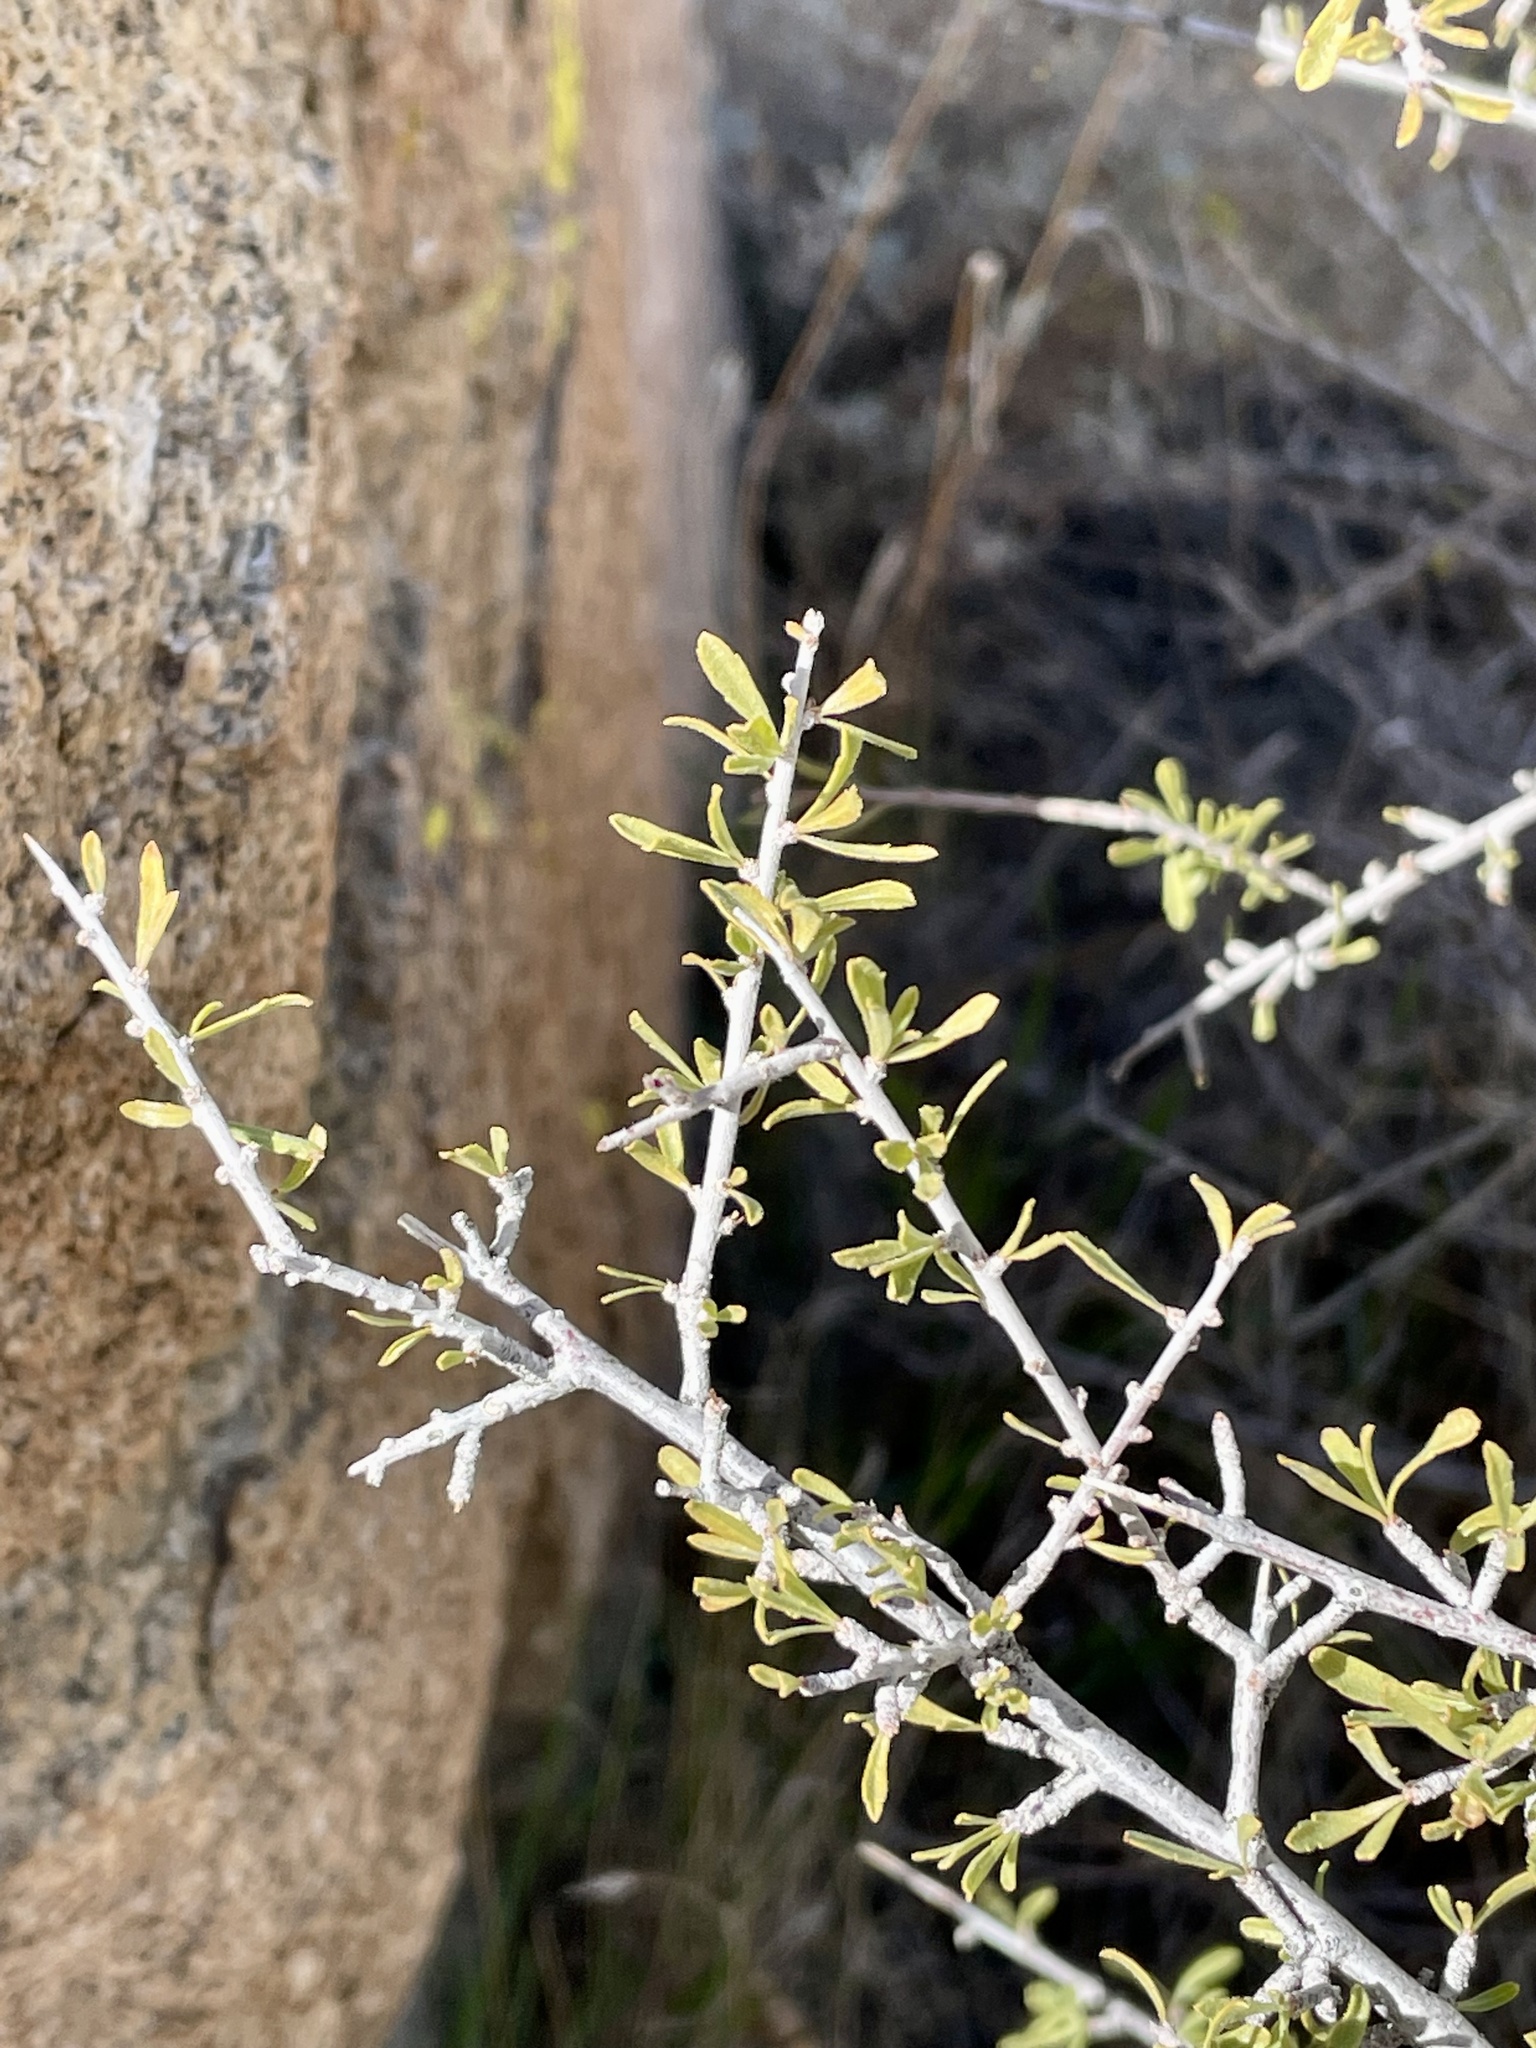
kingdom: Plantae
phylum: Tracheophyta
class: Magnoliopsida
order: Solanales
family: Solanaceae
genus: Lycium
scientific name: Lycium andersonii
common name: Water-jacket
